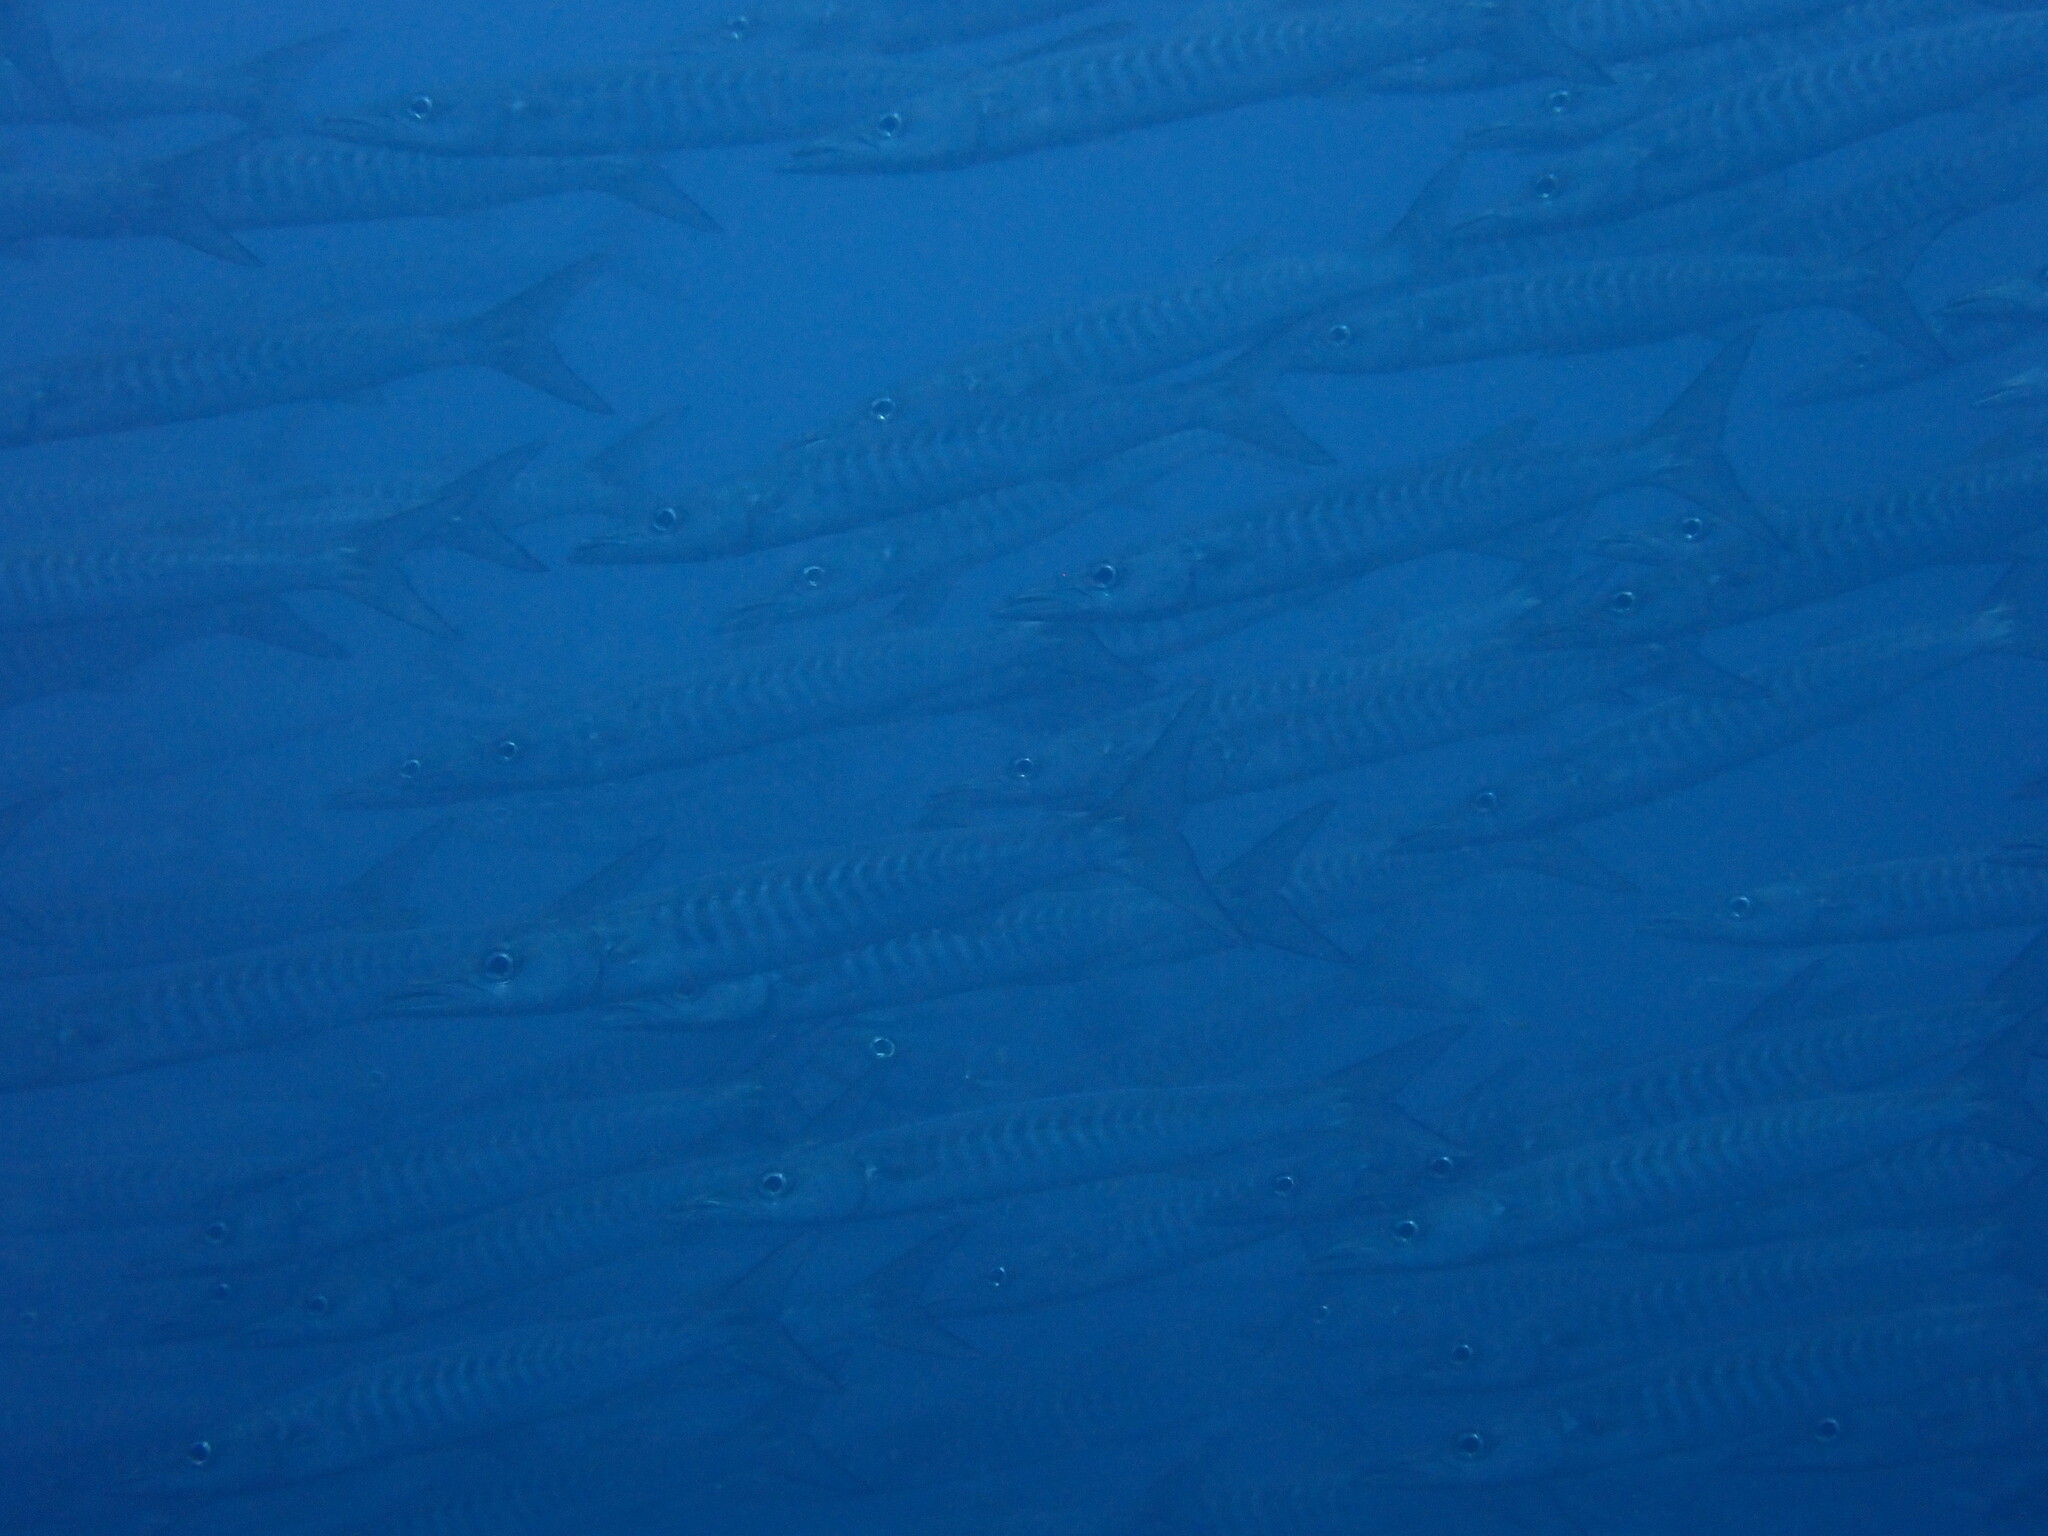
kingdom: Animalia
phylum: Chordata
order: Perciformes
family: Sphyraenidae
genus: Sphyraena
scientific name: Sphyraena qenie
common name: Blackfin barracuda
